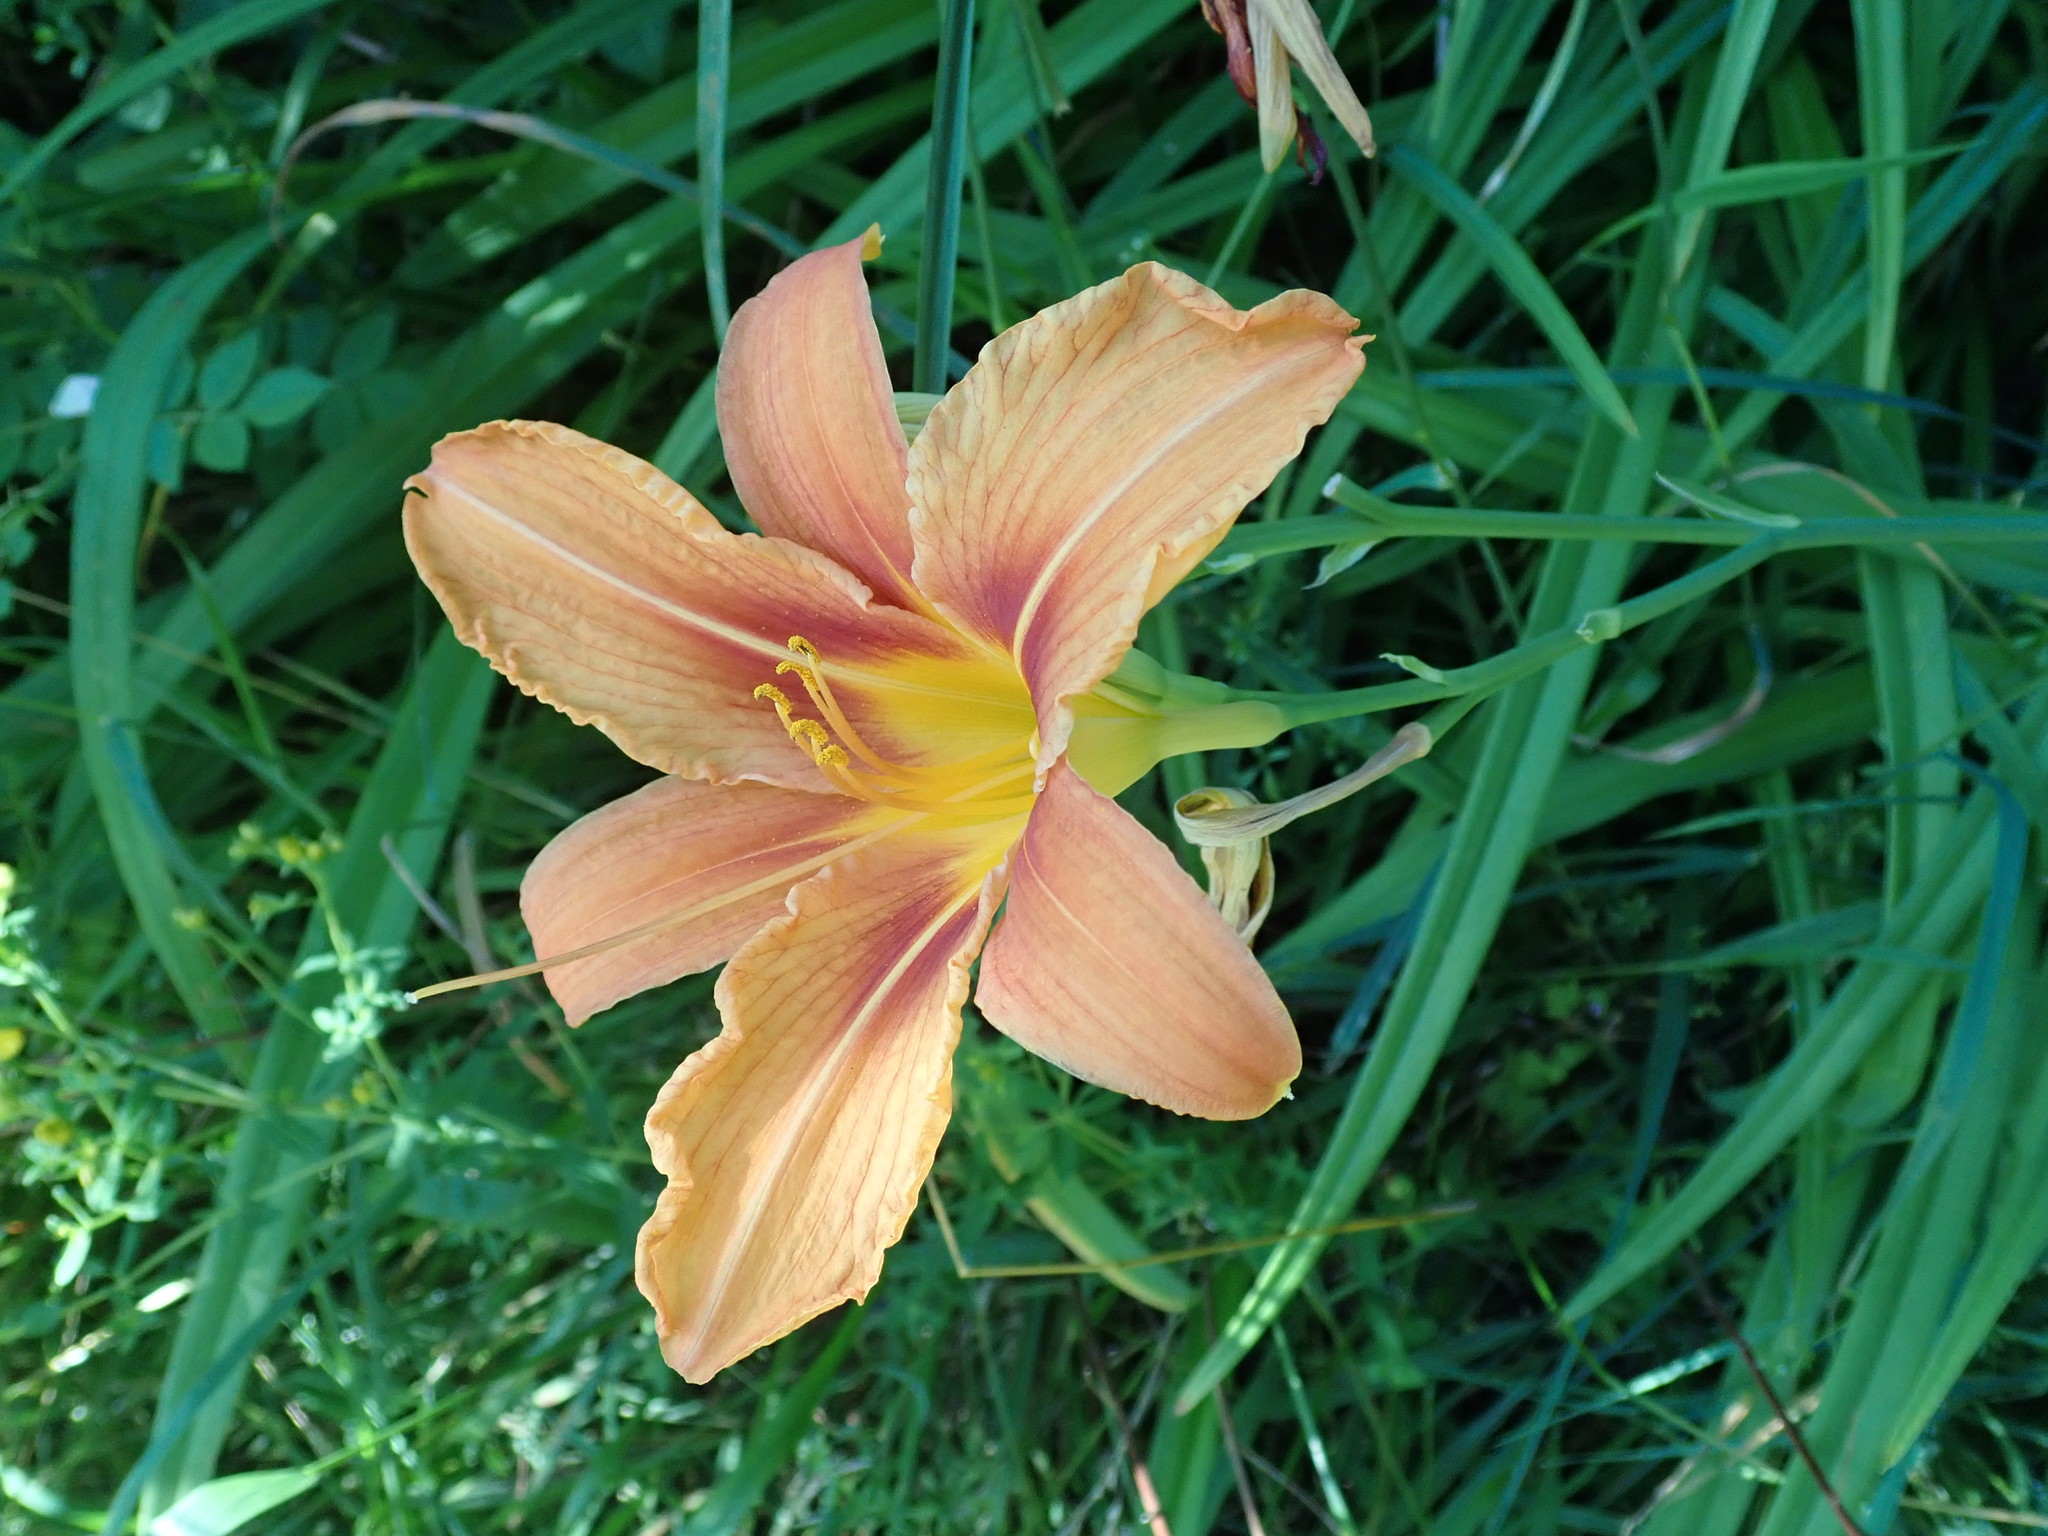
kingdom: Plantae
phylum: Tracheophyta
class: Liliopsida
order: Asparagales
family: Asphodelaceae
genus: Hemerocallis
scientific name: Hemerocallis fulva
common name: Orange day-lily
